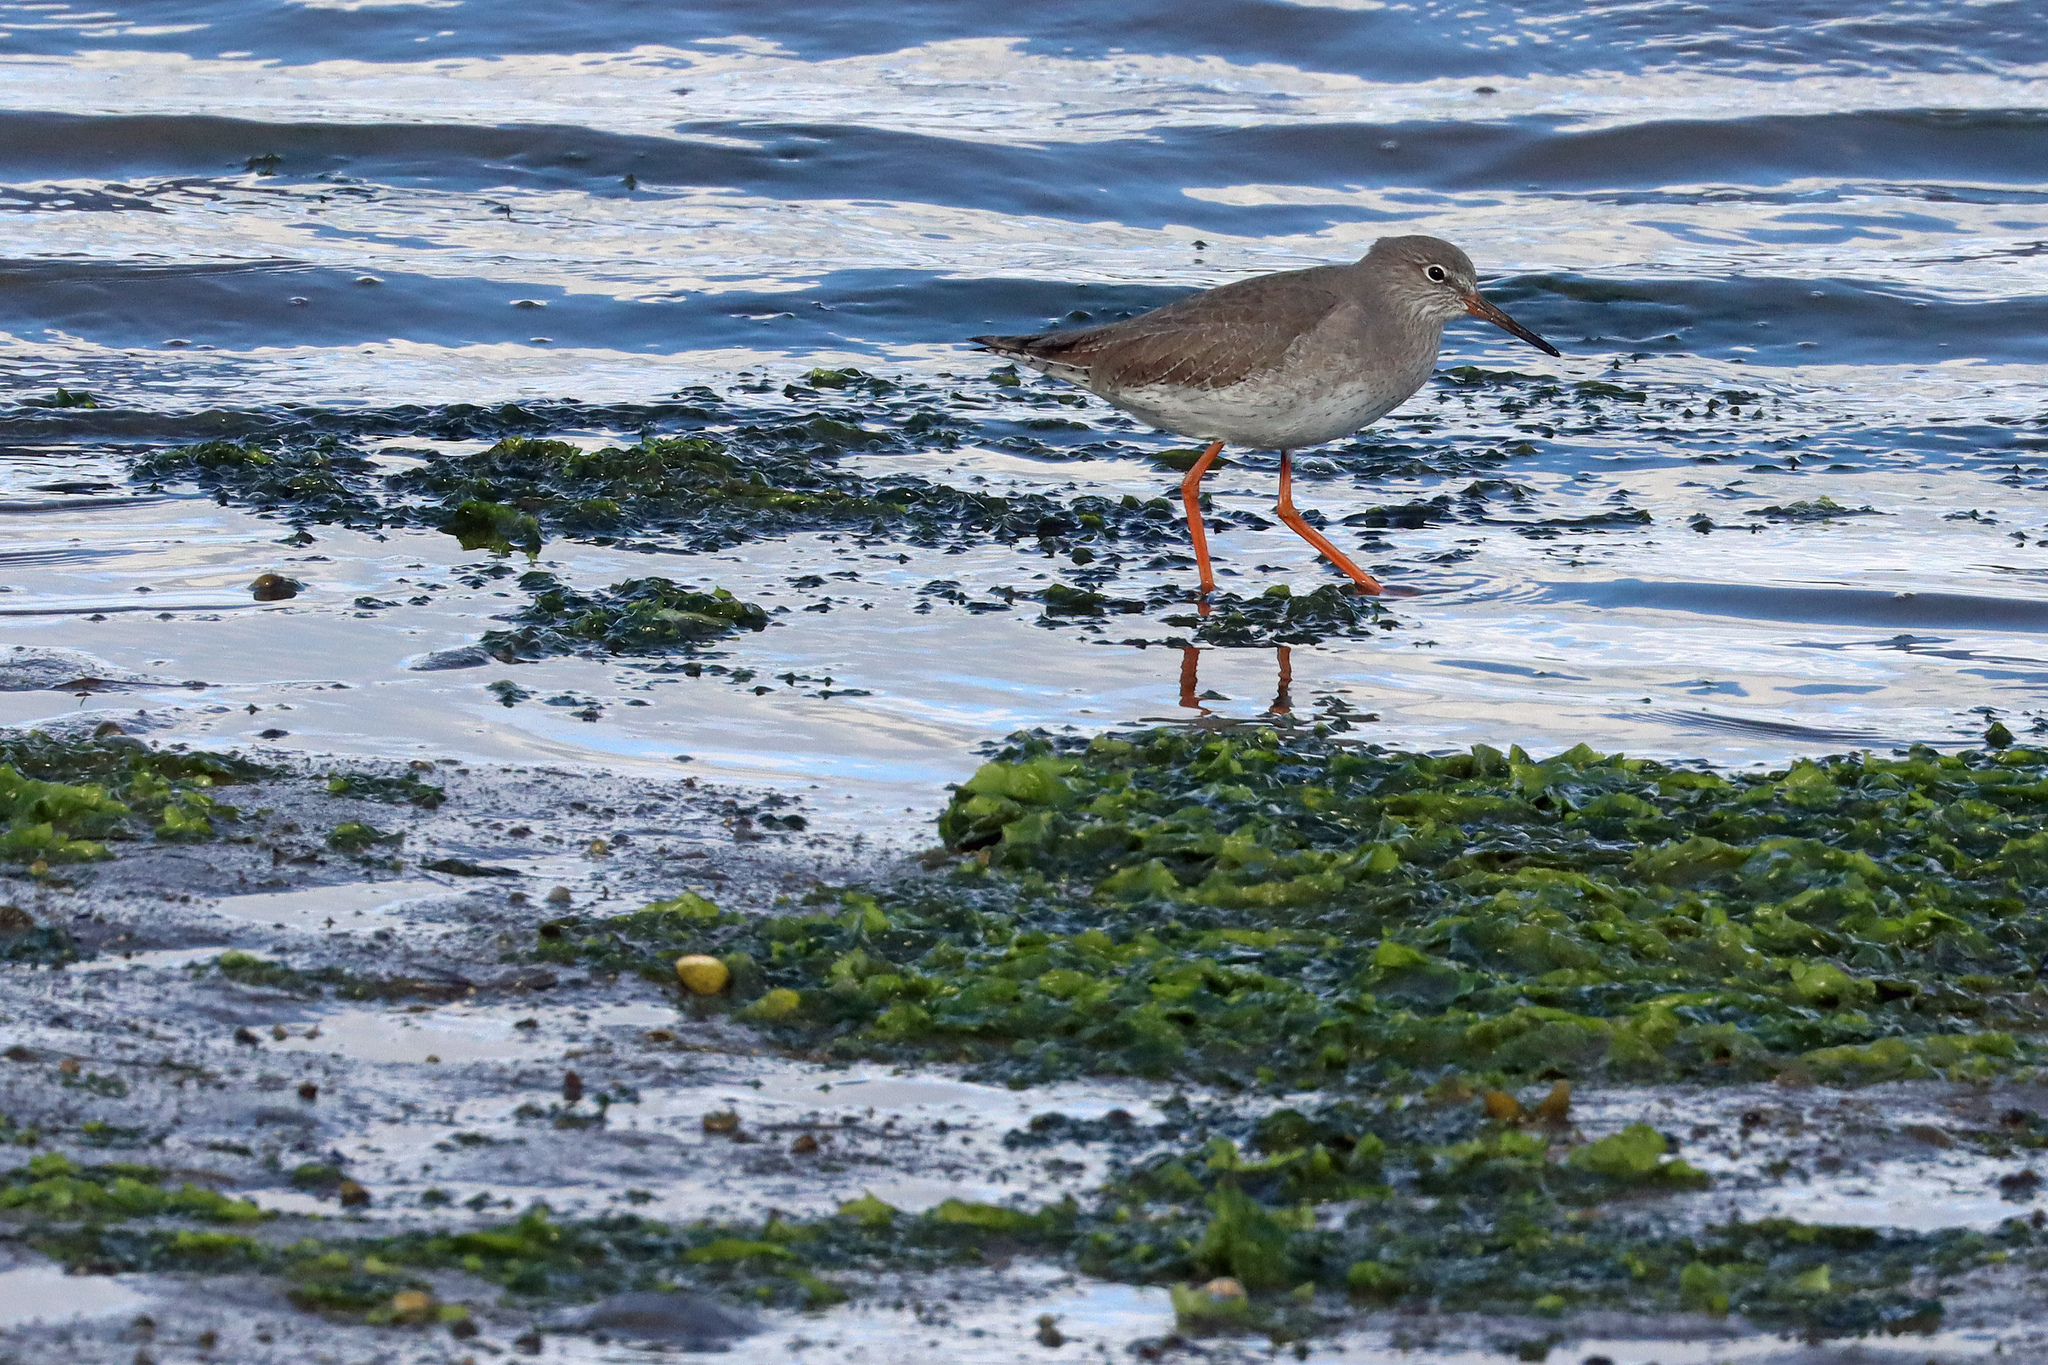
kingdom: Animalia
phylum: Chordata
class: Aves
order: Charadriiformes
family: Scolopacidae
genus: Tringa
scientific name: Tringa totanus
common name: Common redshank
